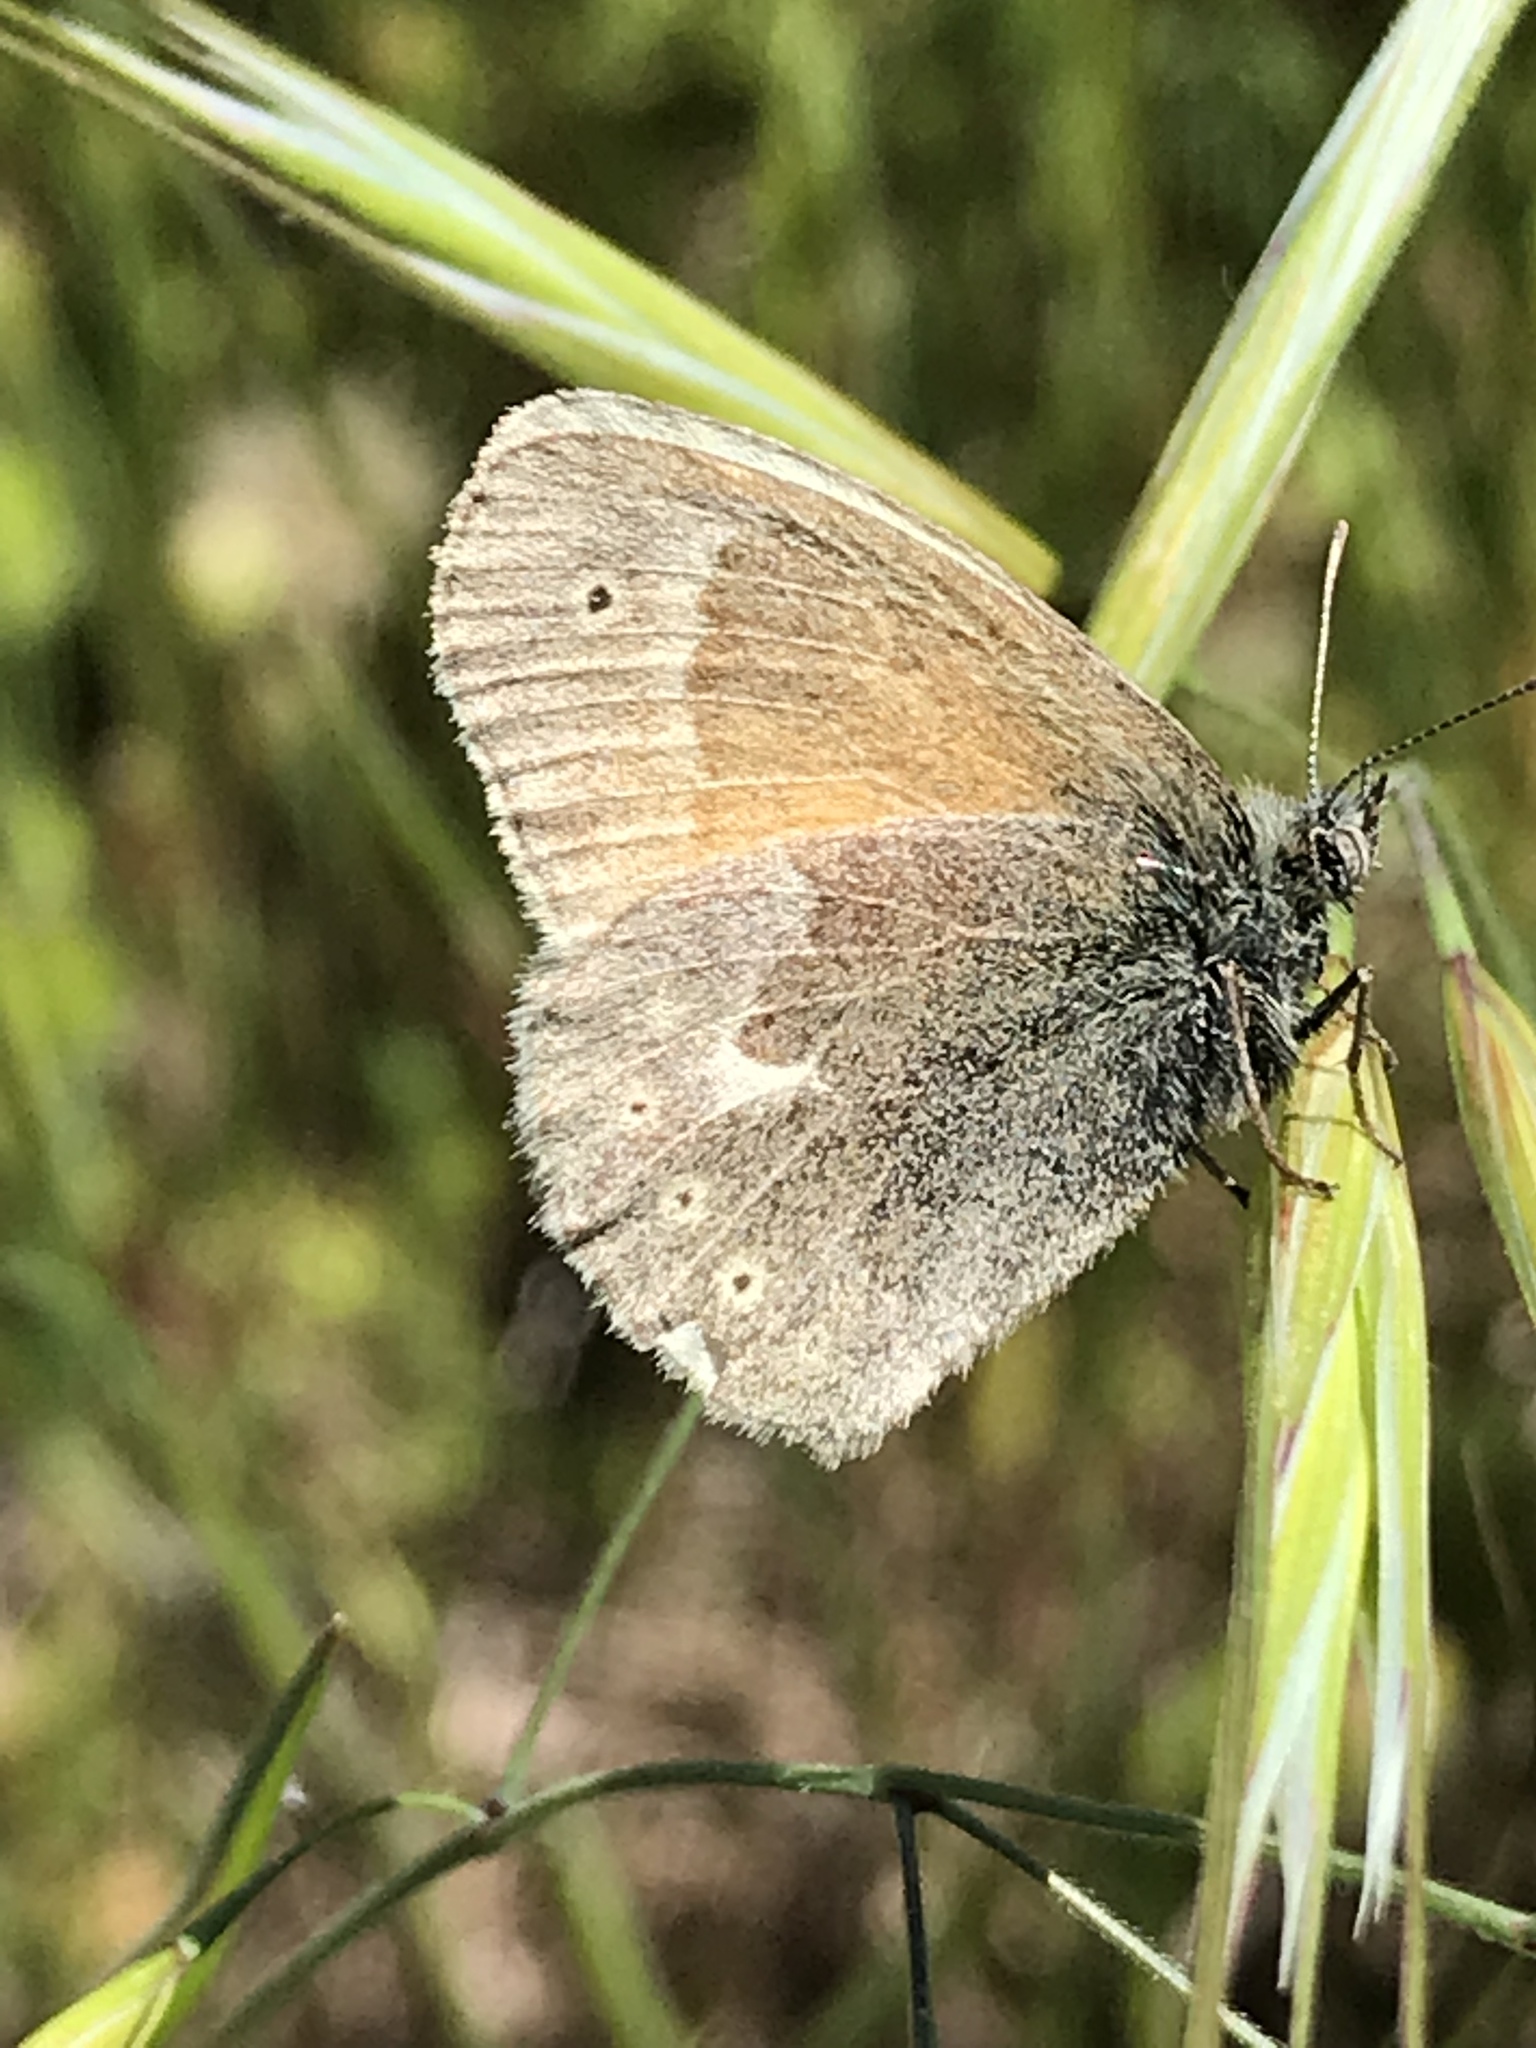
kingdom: Animalia
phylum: Arthropoda
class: Insecta
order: Lepidoptera
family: Nymphalidae
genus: Coenonympha
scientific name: Coenonympha california
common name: Common ringlet
